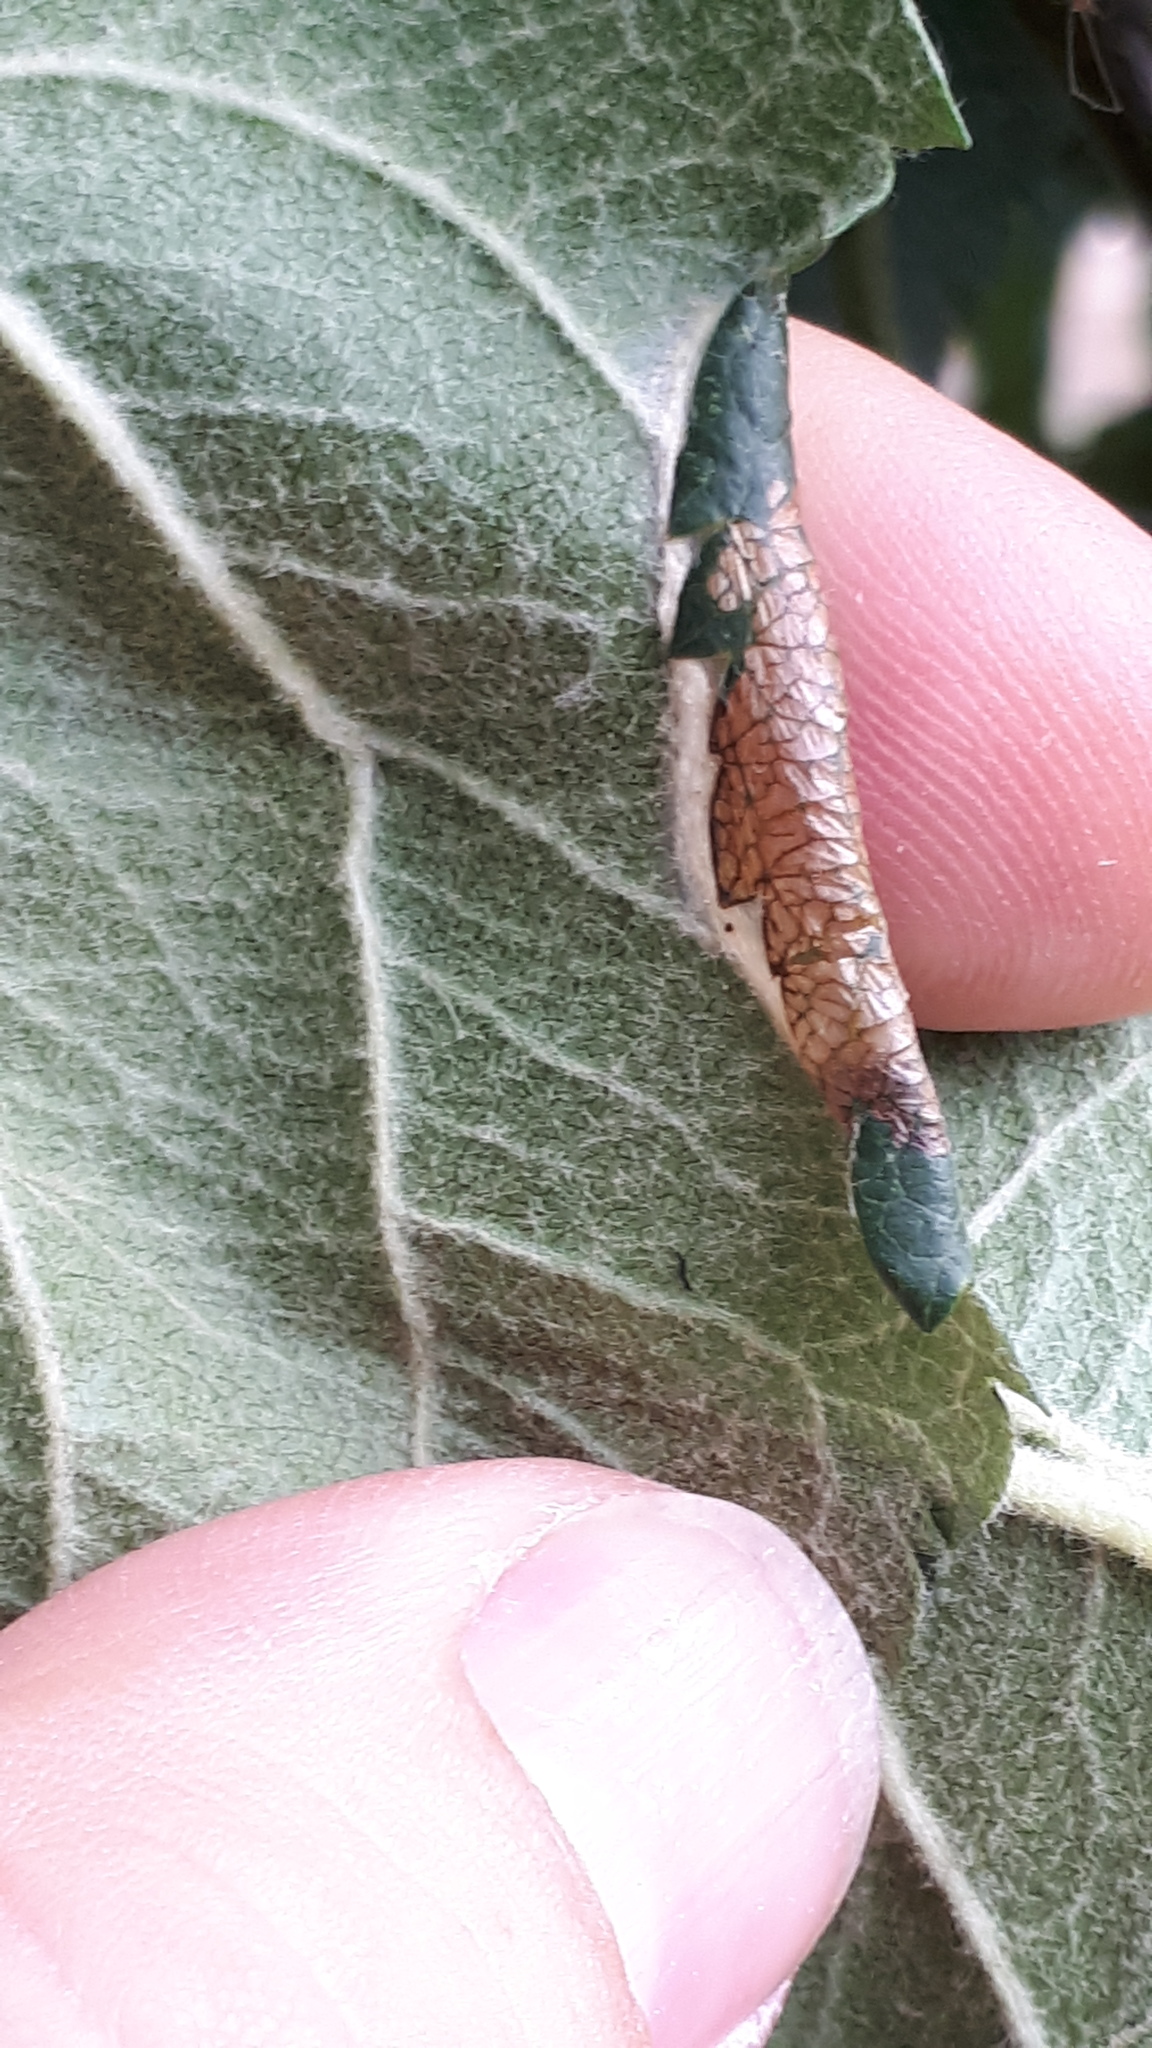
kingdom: Animalia
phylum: Arthropoda
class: Insecta
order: Lepidoptera
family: Gracillariidae
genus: Callisto
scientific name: Callisto denticulella
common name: Garden apple slender
